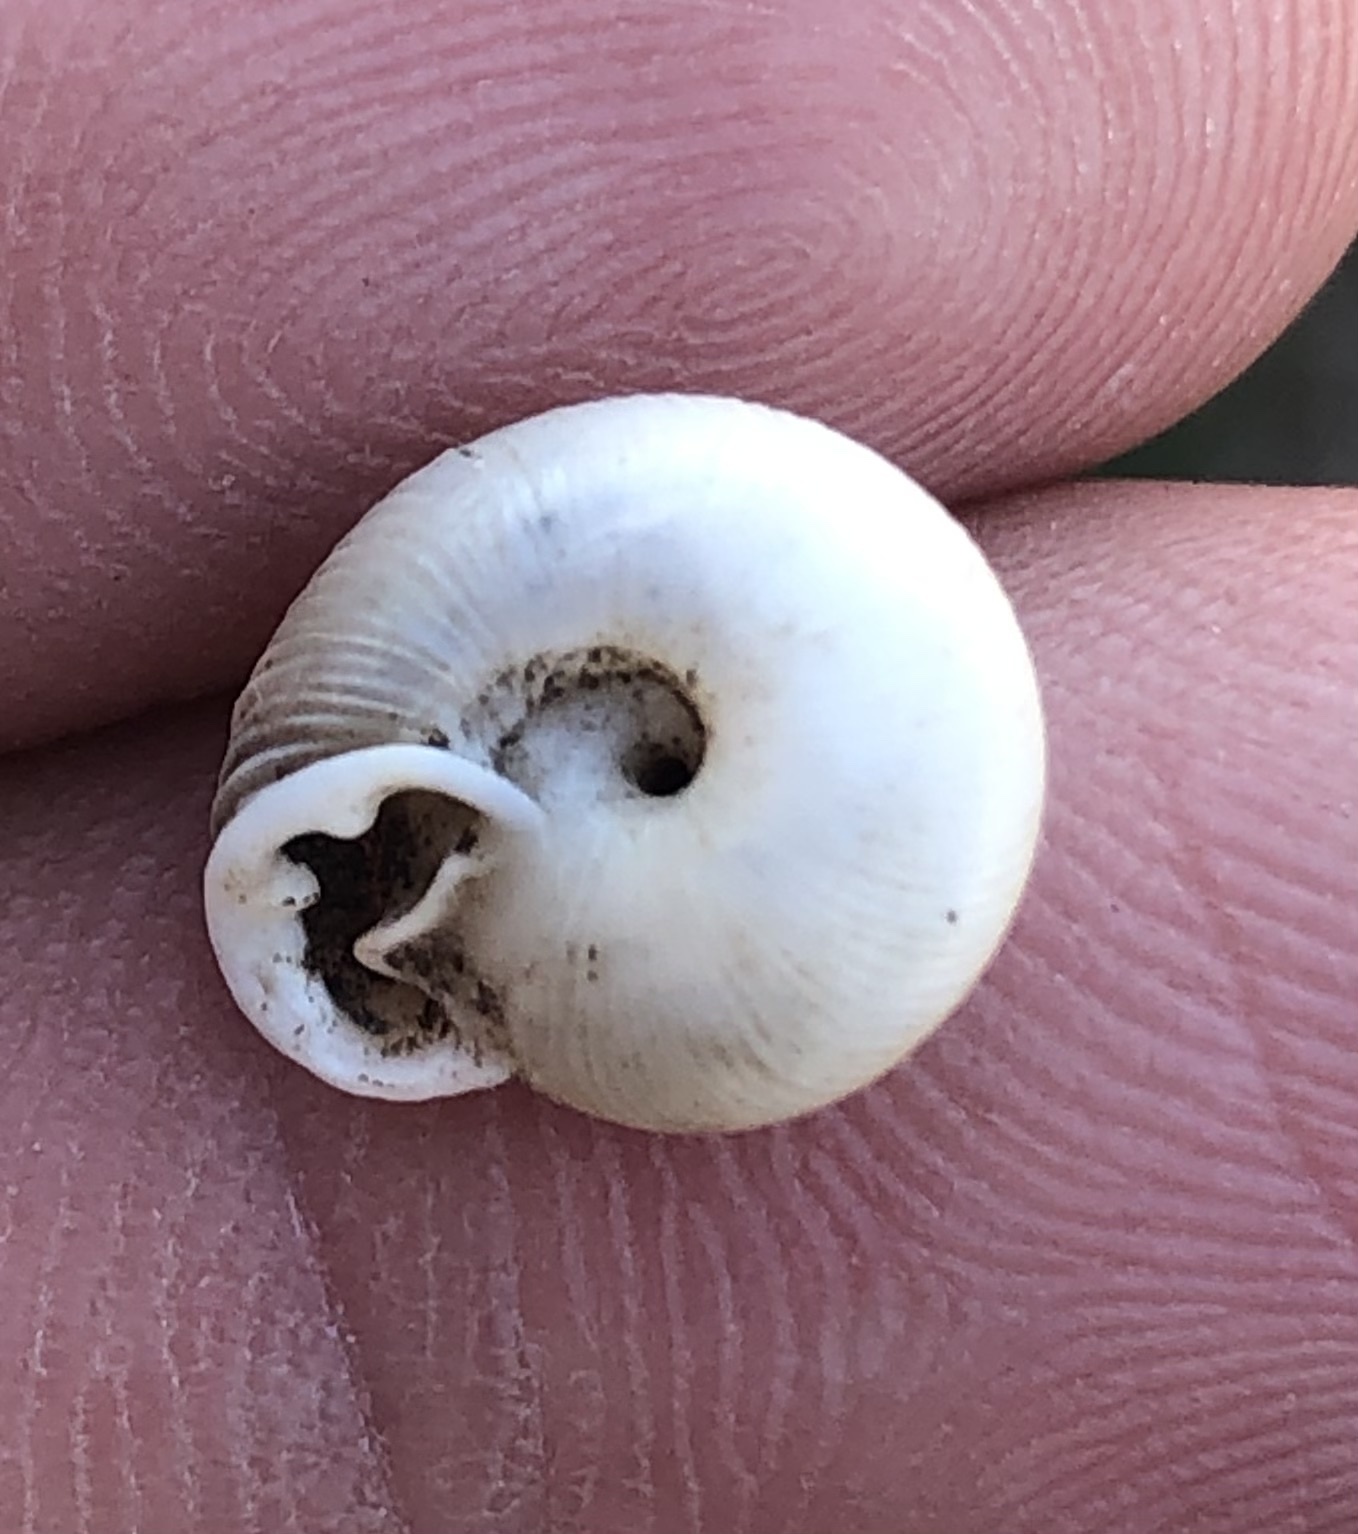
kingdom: Animalia
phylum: Mollusca
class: Gastropoda
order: Stylommatophora
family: Polygyridae
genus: Linisa
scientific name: Linisa texasiana
